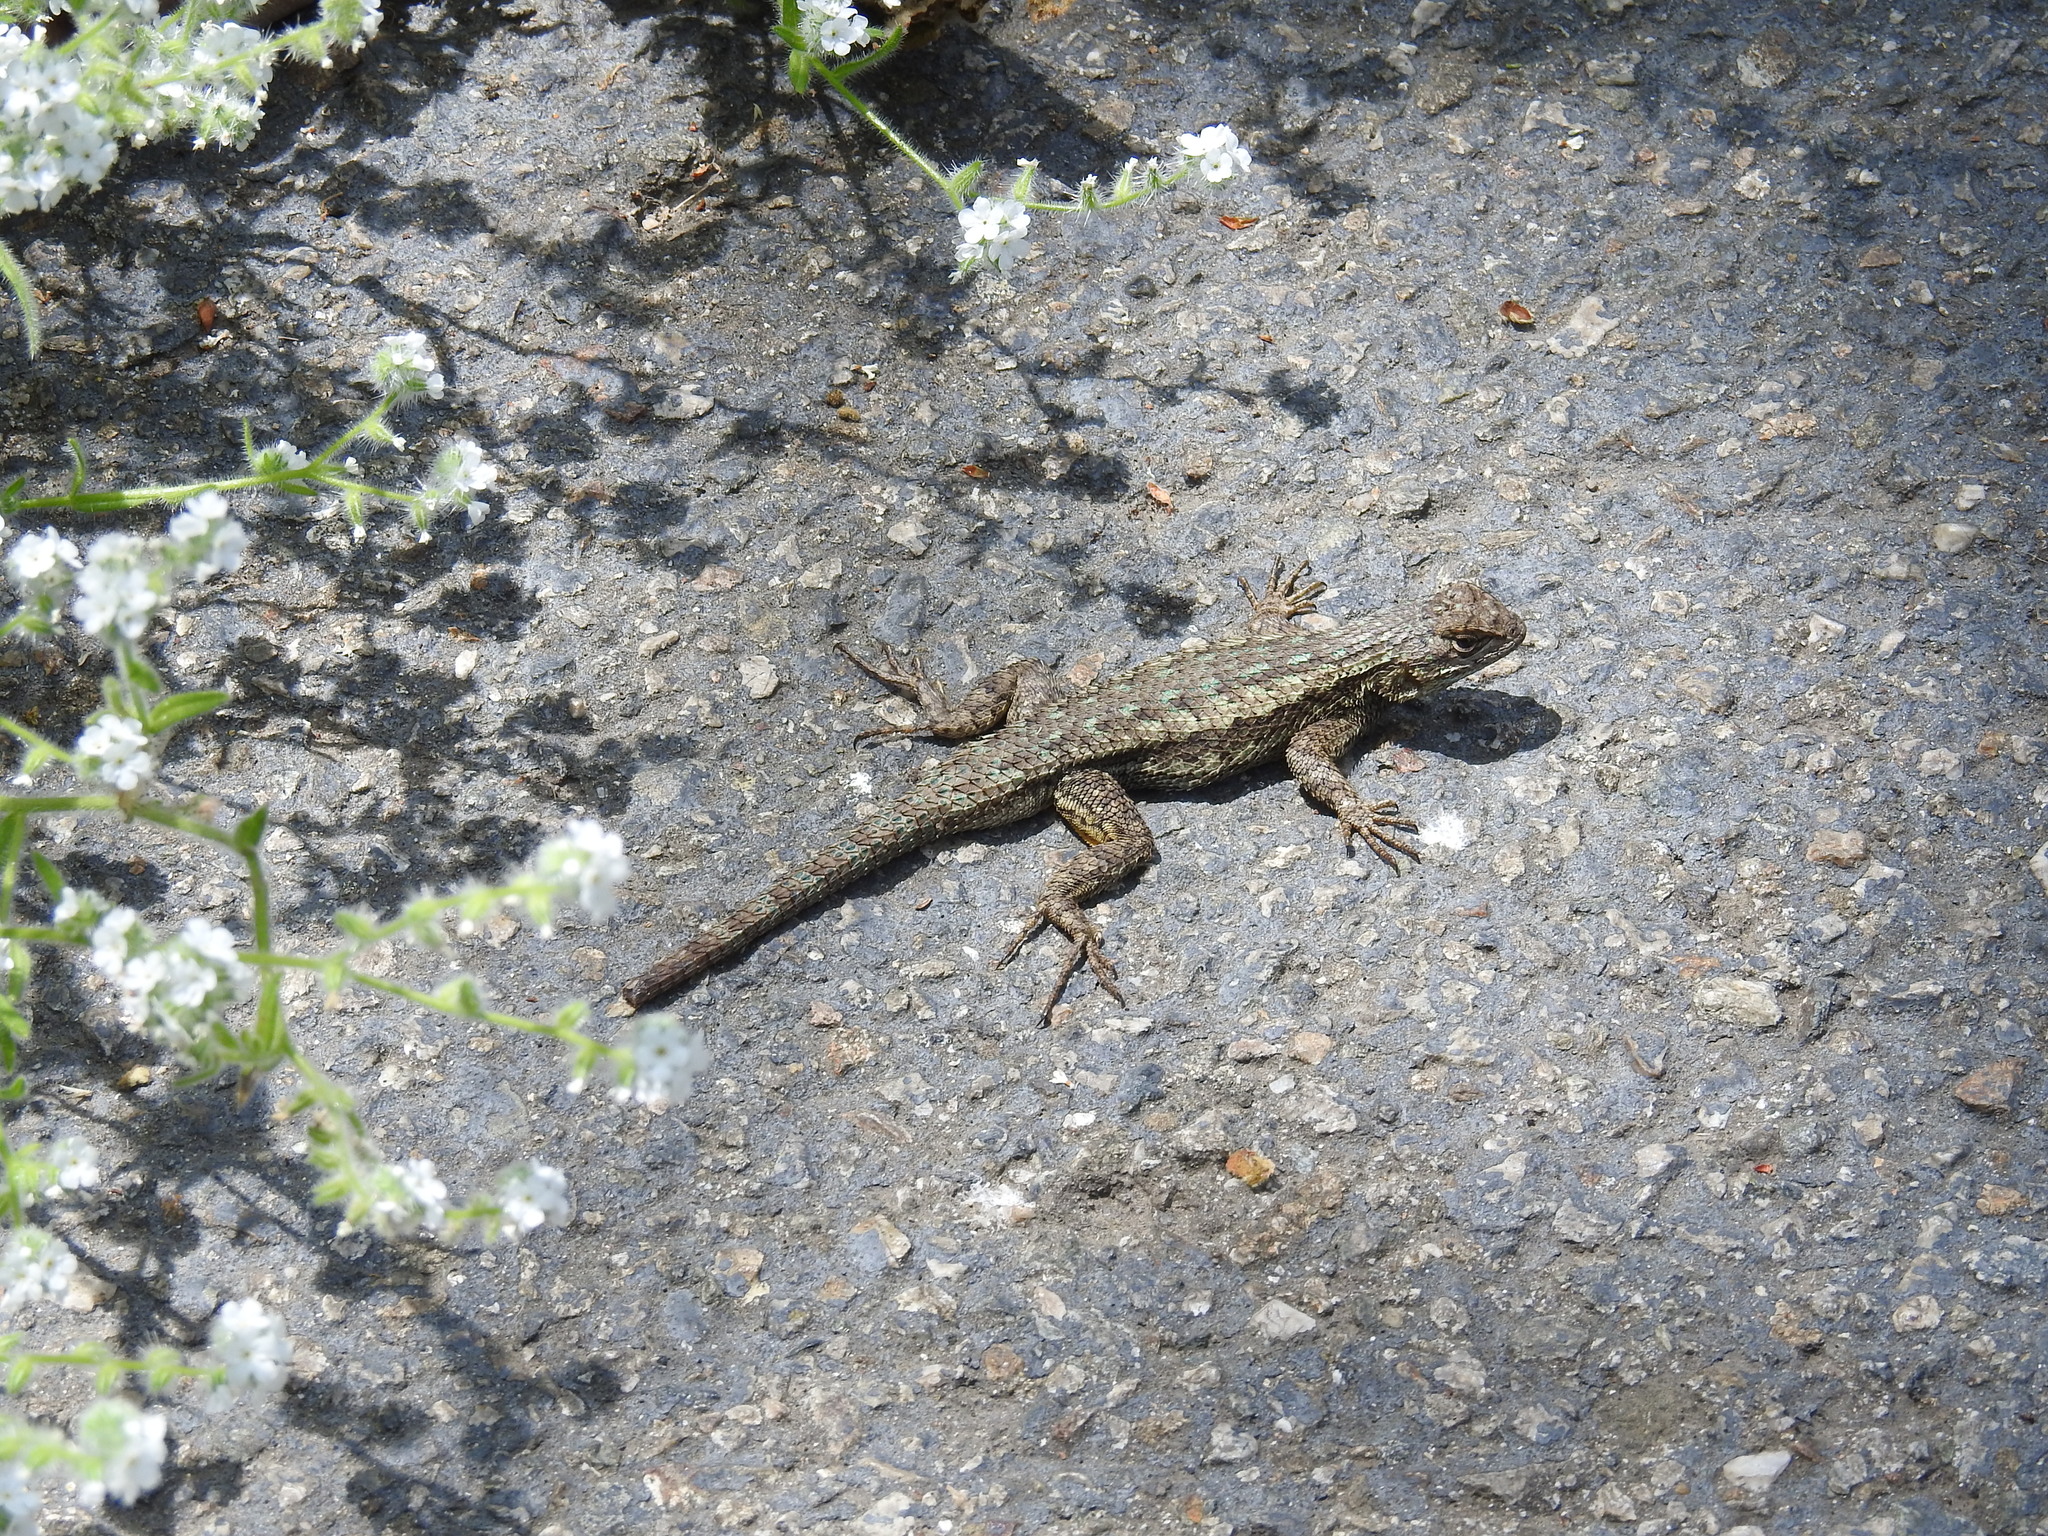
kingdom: Animalia
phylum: Chordata
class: Squamata
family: Phrynosomatidae
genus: Sceloporus
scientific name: Sceloporus occidentalis
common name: Western fence lizard
